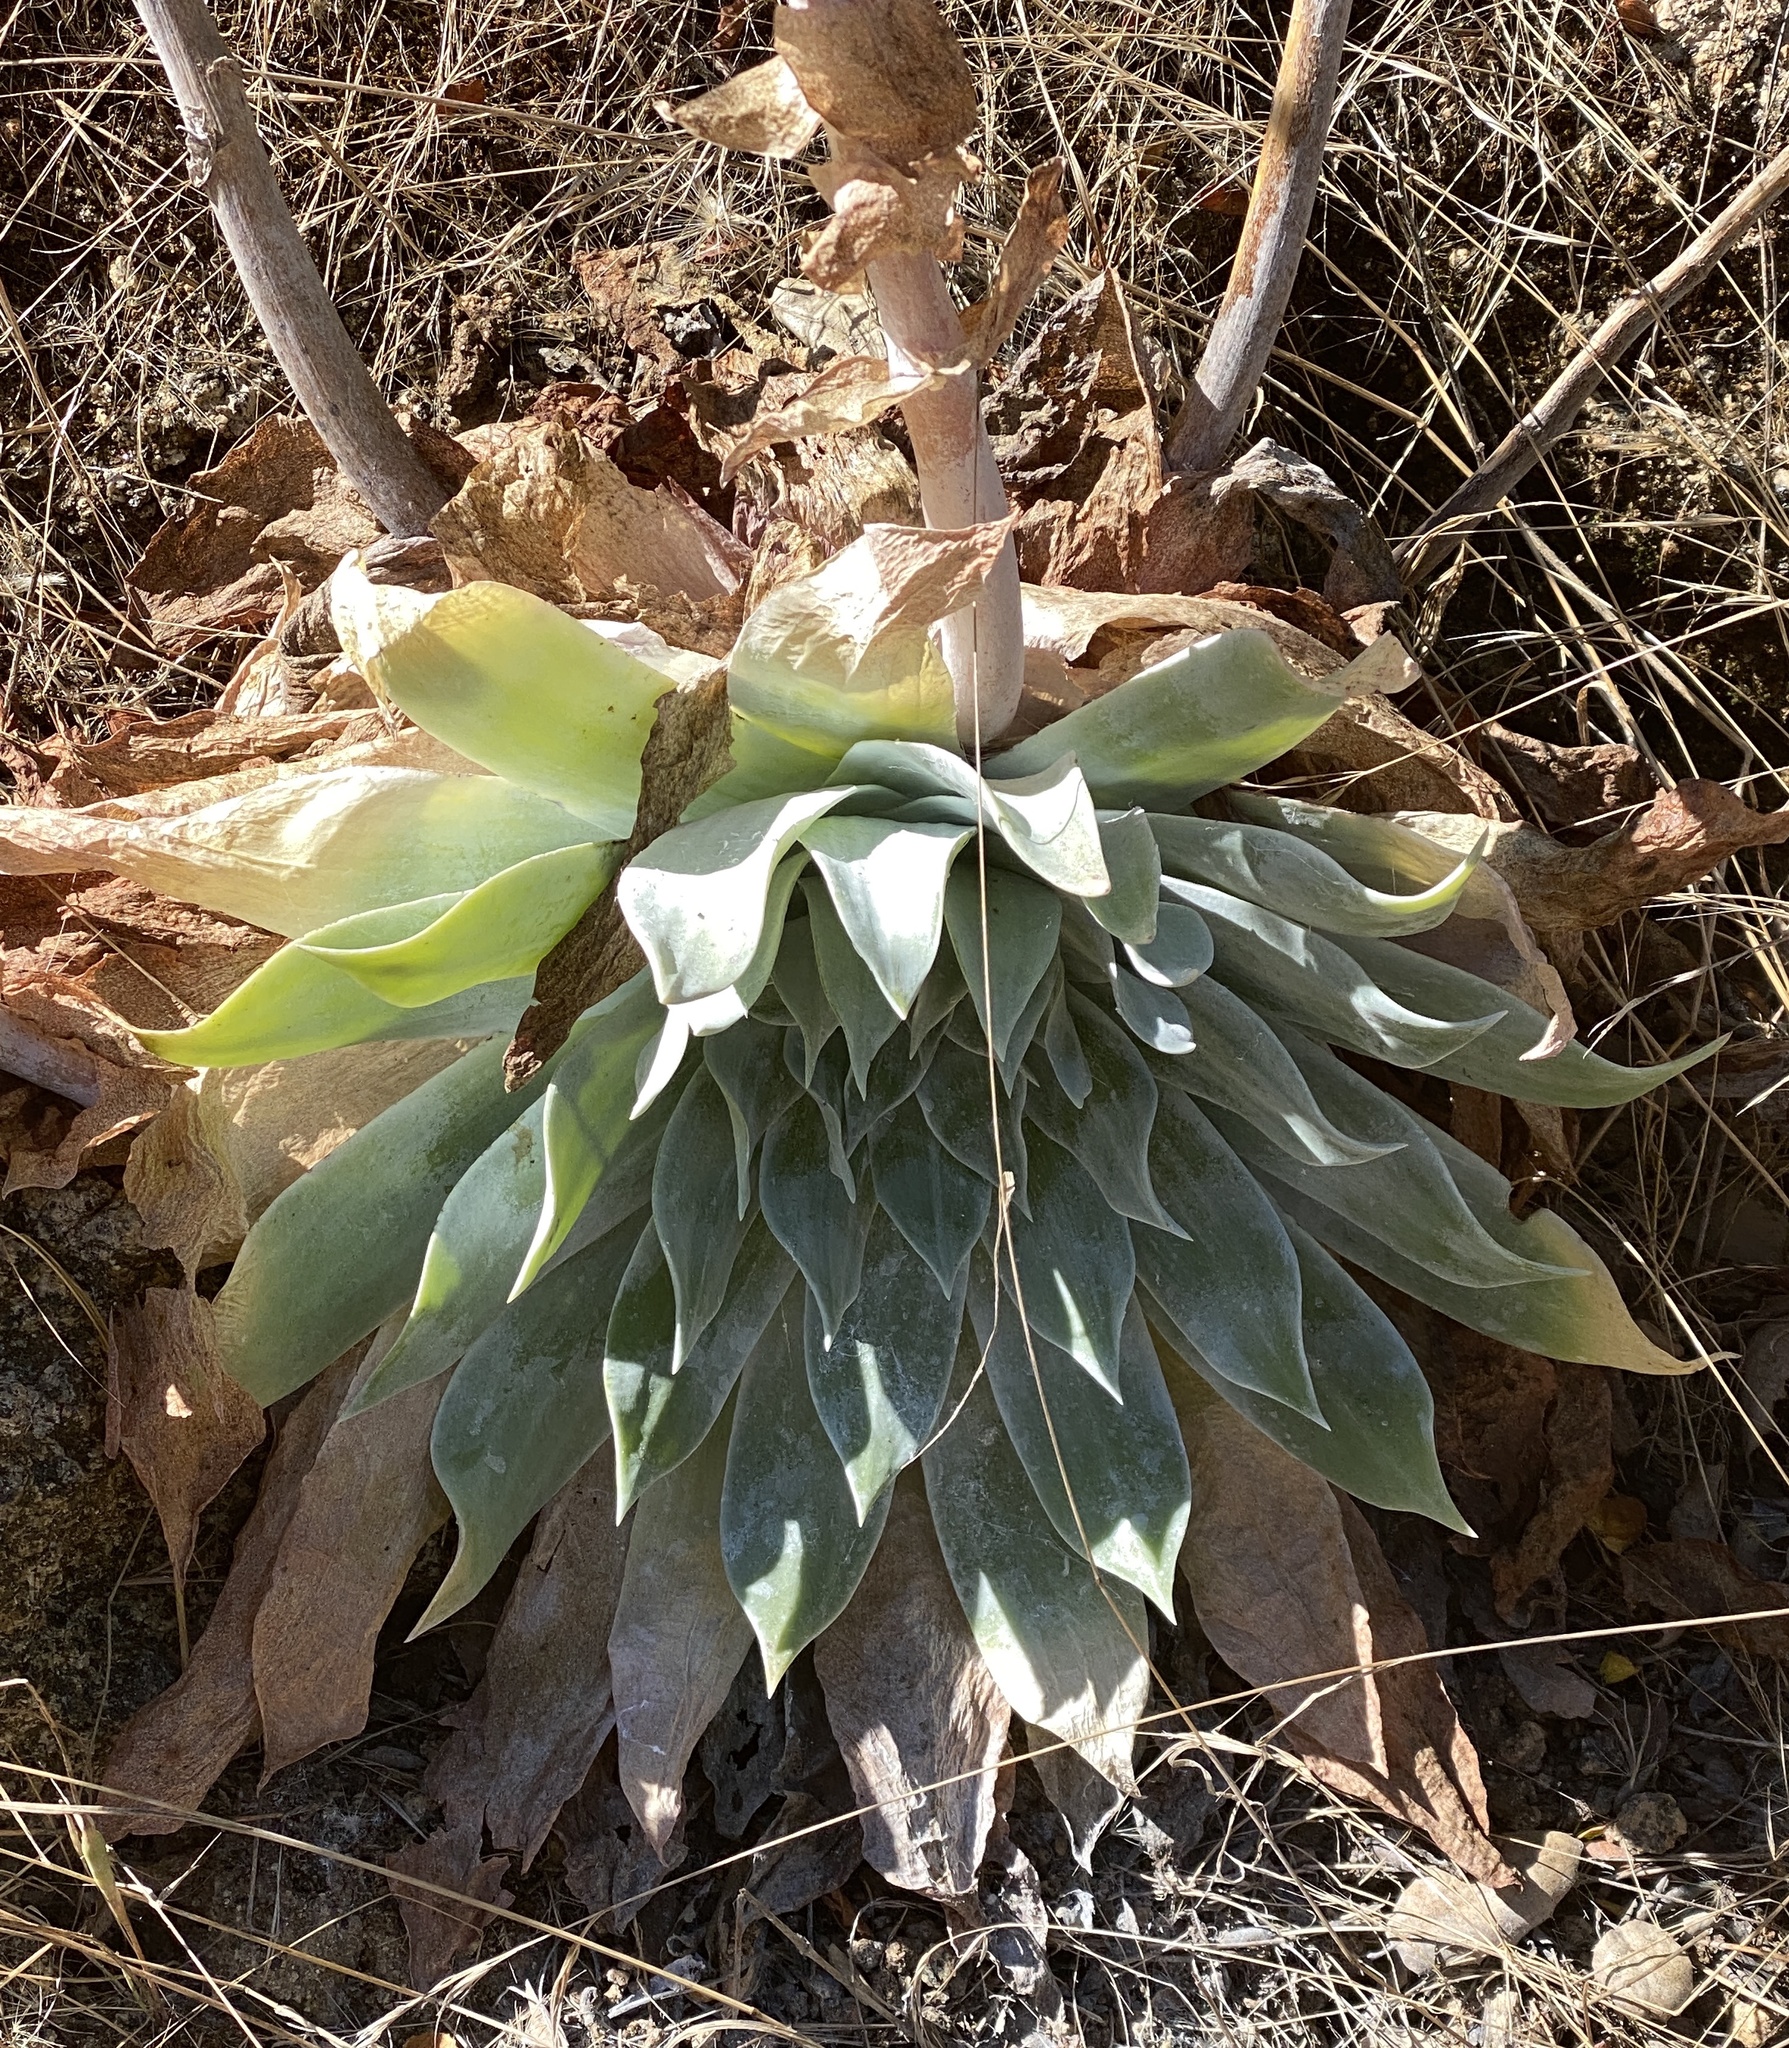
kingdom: Plantae
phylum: Tracheophyta
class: Magnoliopsida
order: Saxifragales
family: Crassulaceae
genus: Dudleya
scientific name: Dudleya pulverulenta
